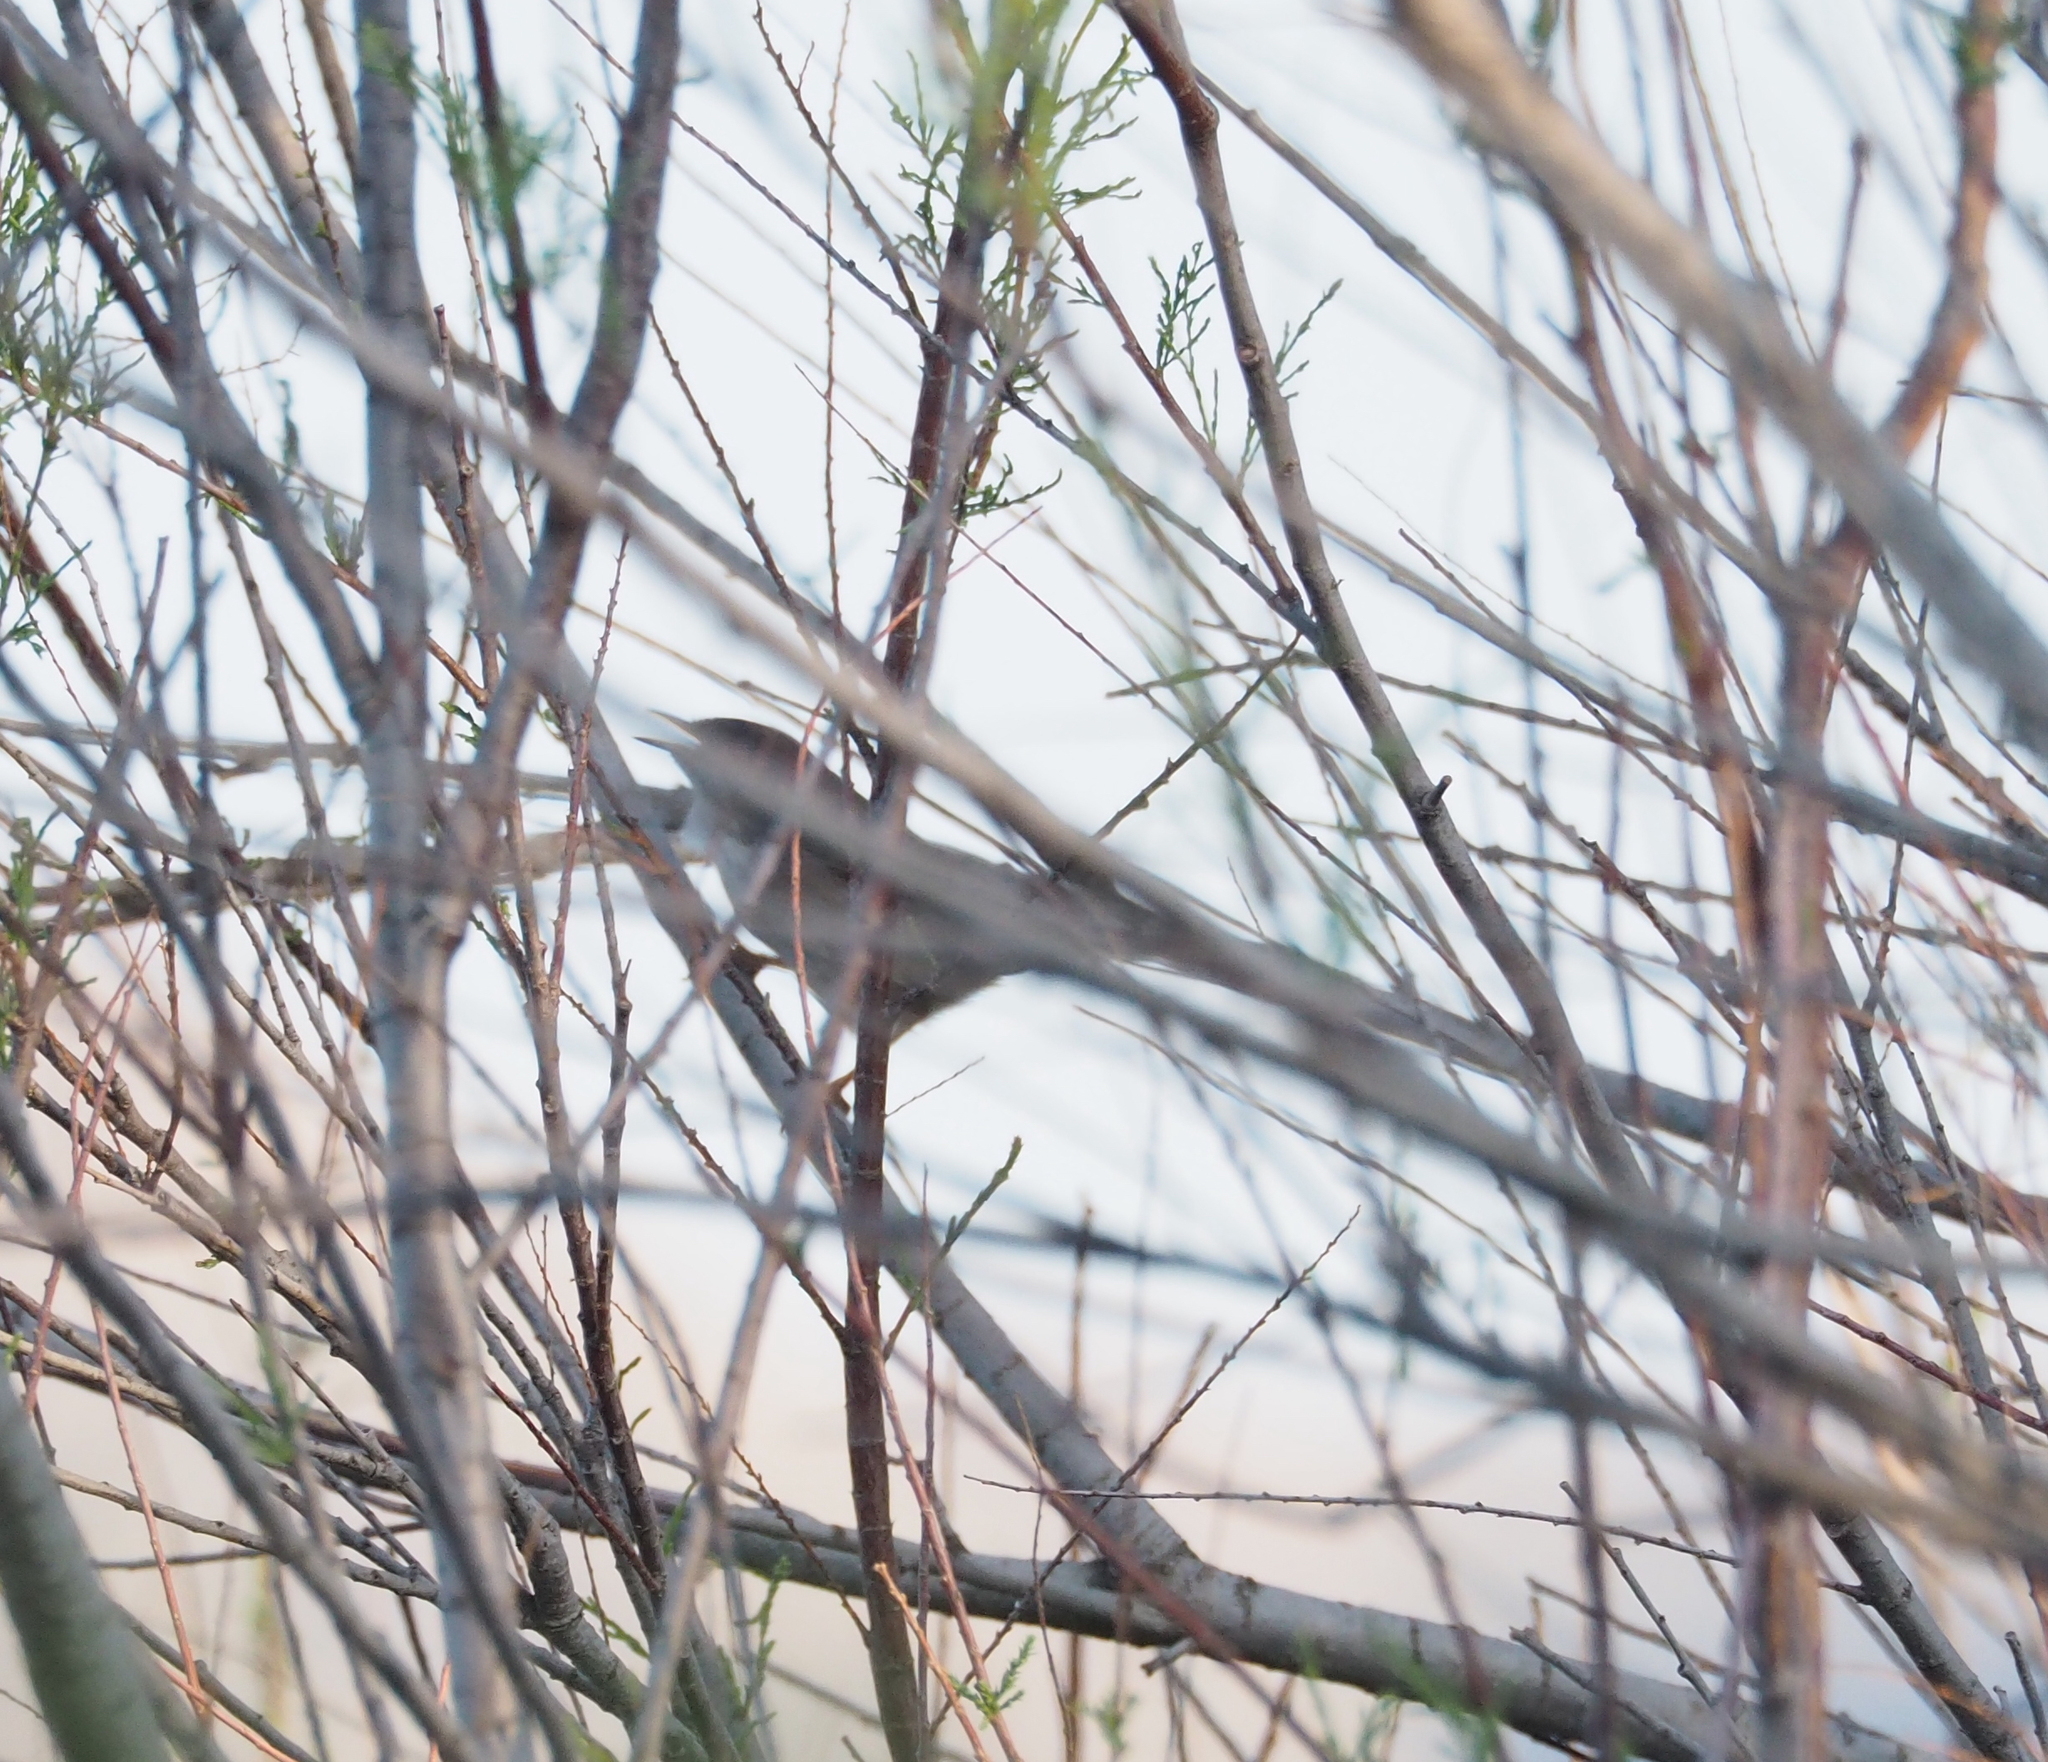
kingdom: Animalia
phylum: Chordata
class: Aves
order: Passeriformes
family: Cettiidae
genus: Cettia
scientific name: Cettia cetti
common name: Cetti's warbler
